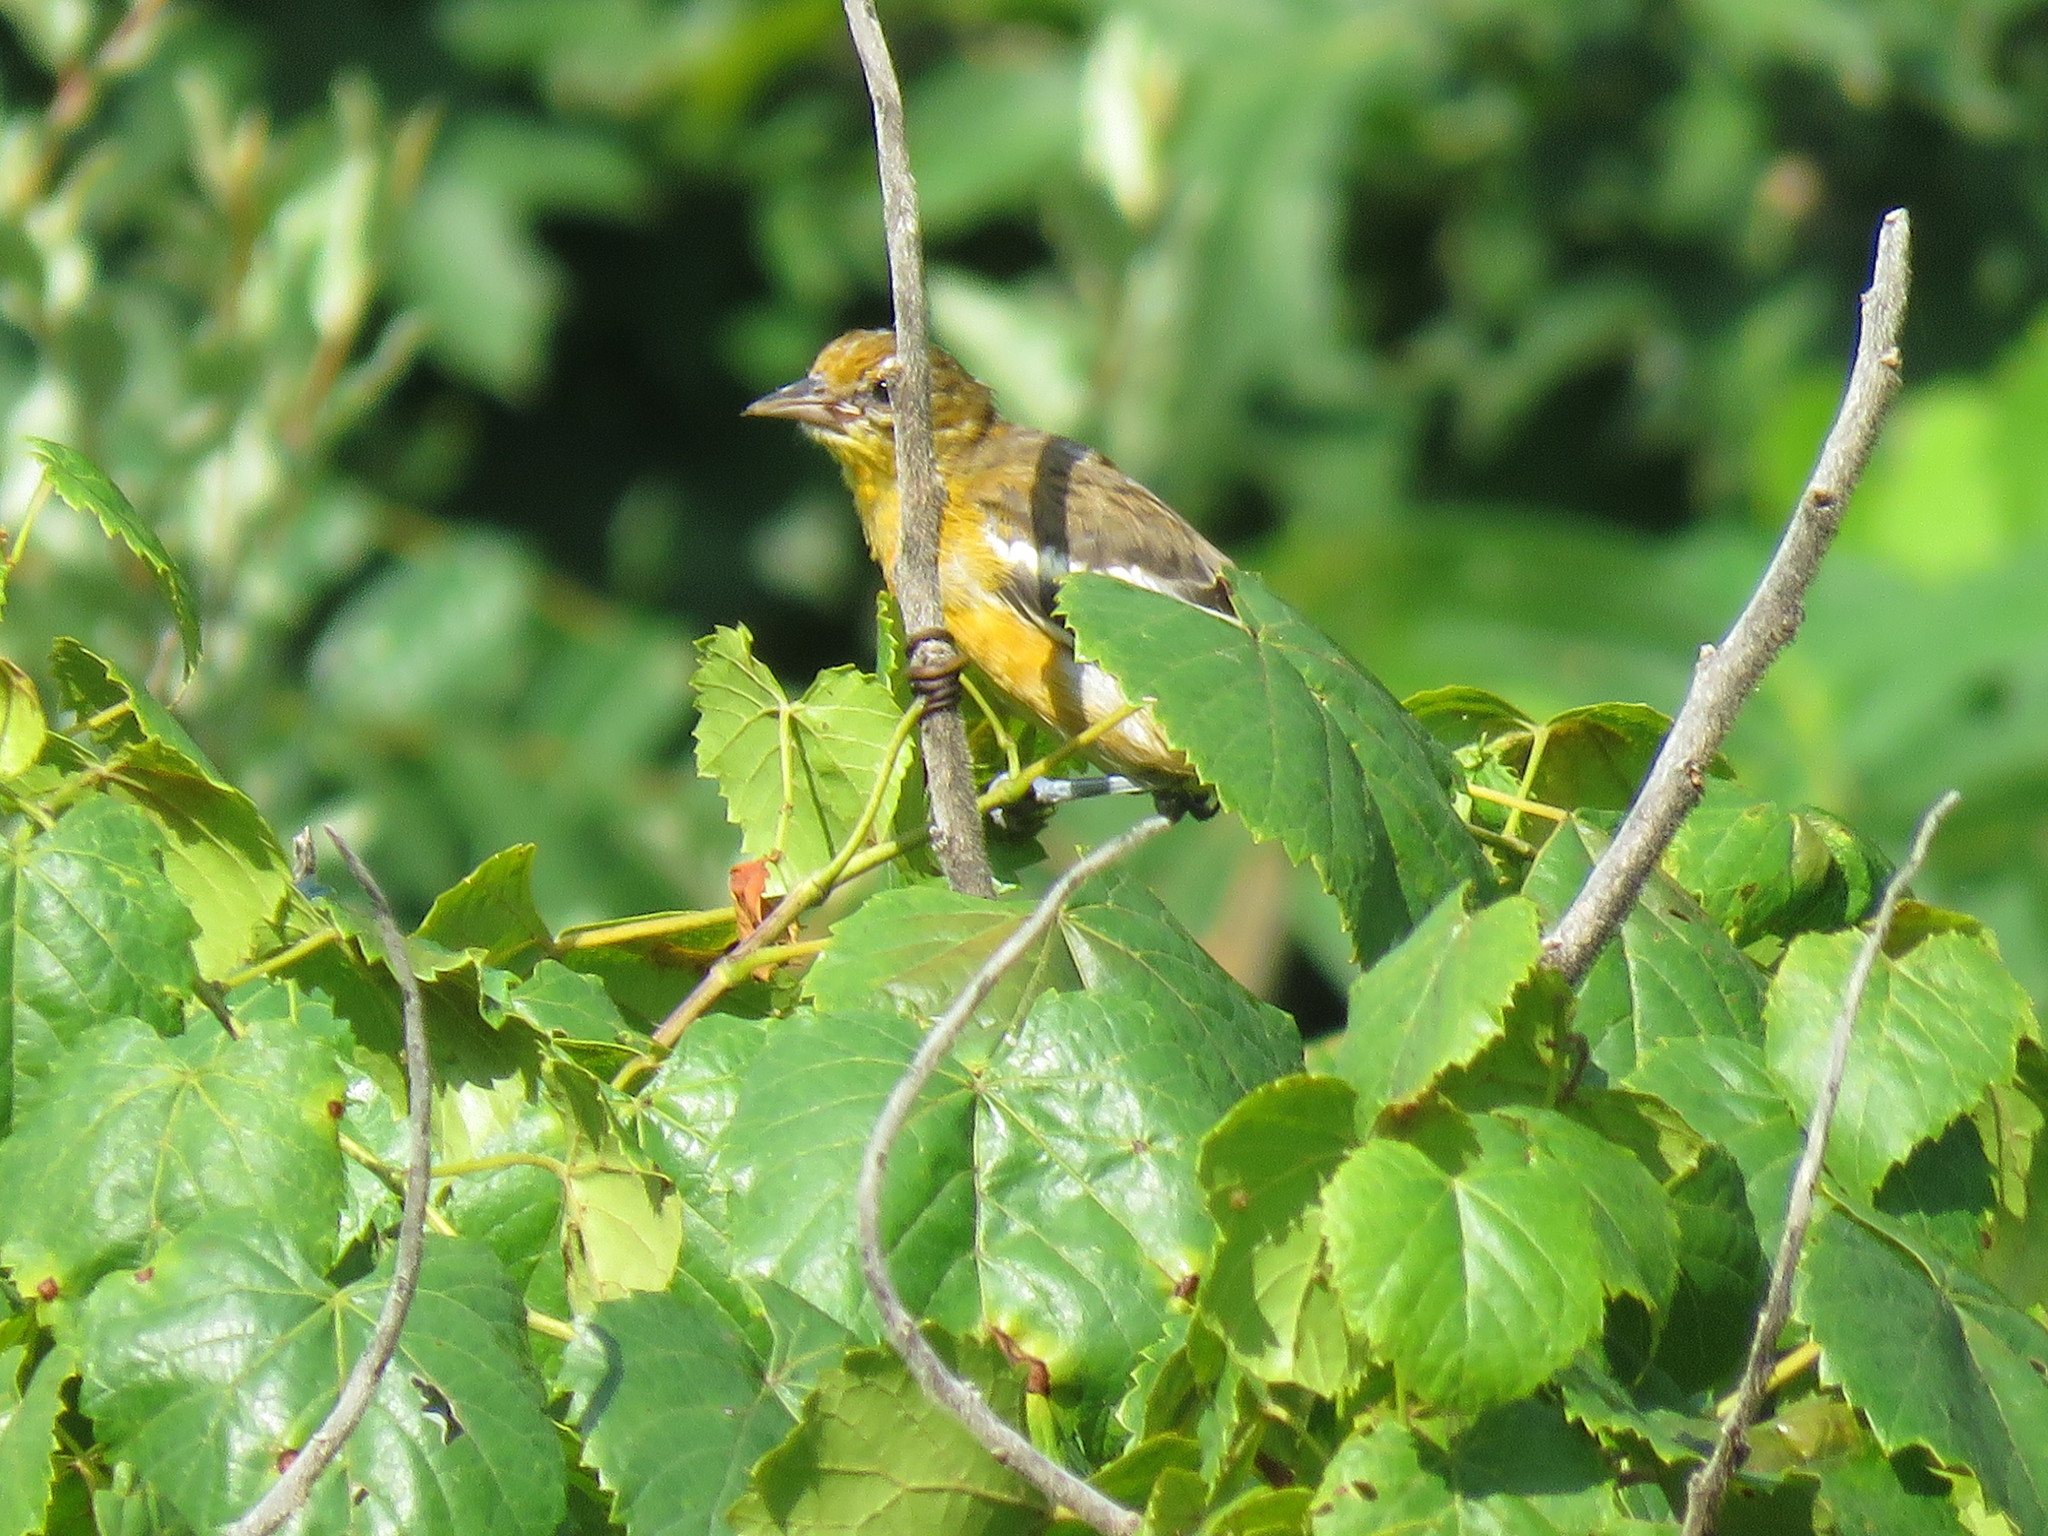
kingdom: Animalia
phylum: Chordata
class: Aves
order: Passeriformes
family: Icteridae
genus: Icterus
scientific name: Icterus galbula
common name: Baltimore oriole
